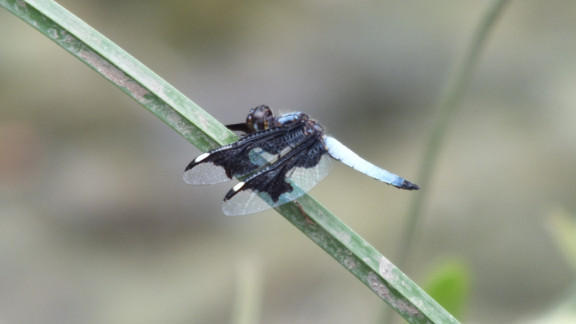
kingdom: Animalia
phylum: Arthropoda
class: Insecta
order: Odonata
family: Libellulidae
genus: Palpopleura
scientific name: Palpopleura portia
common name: Portia widow
